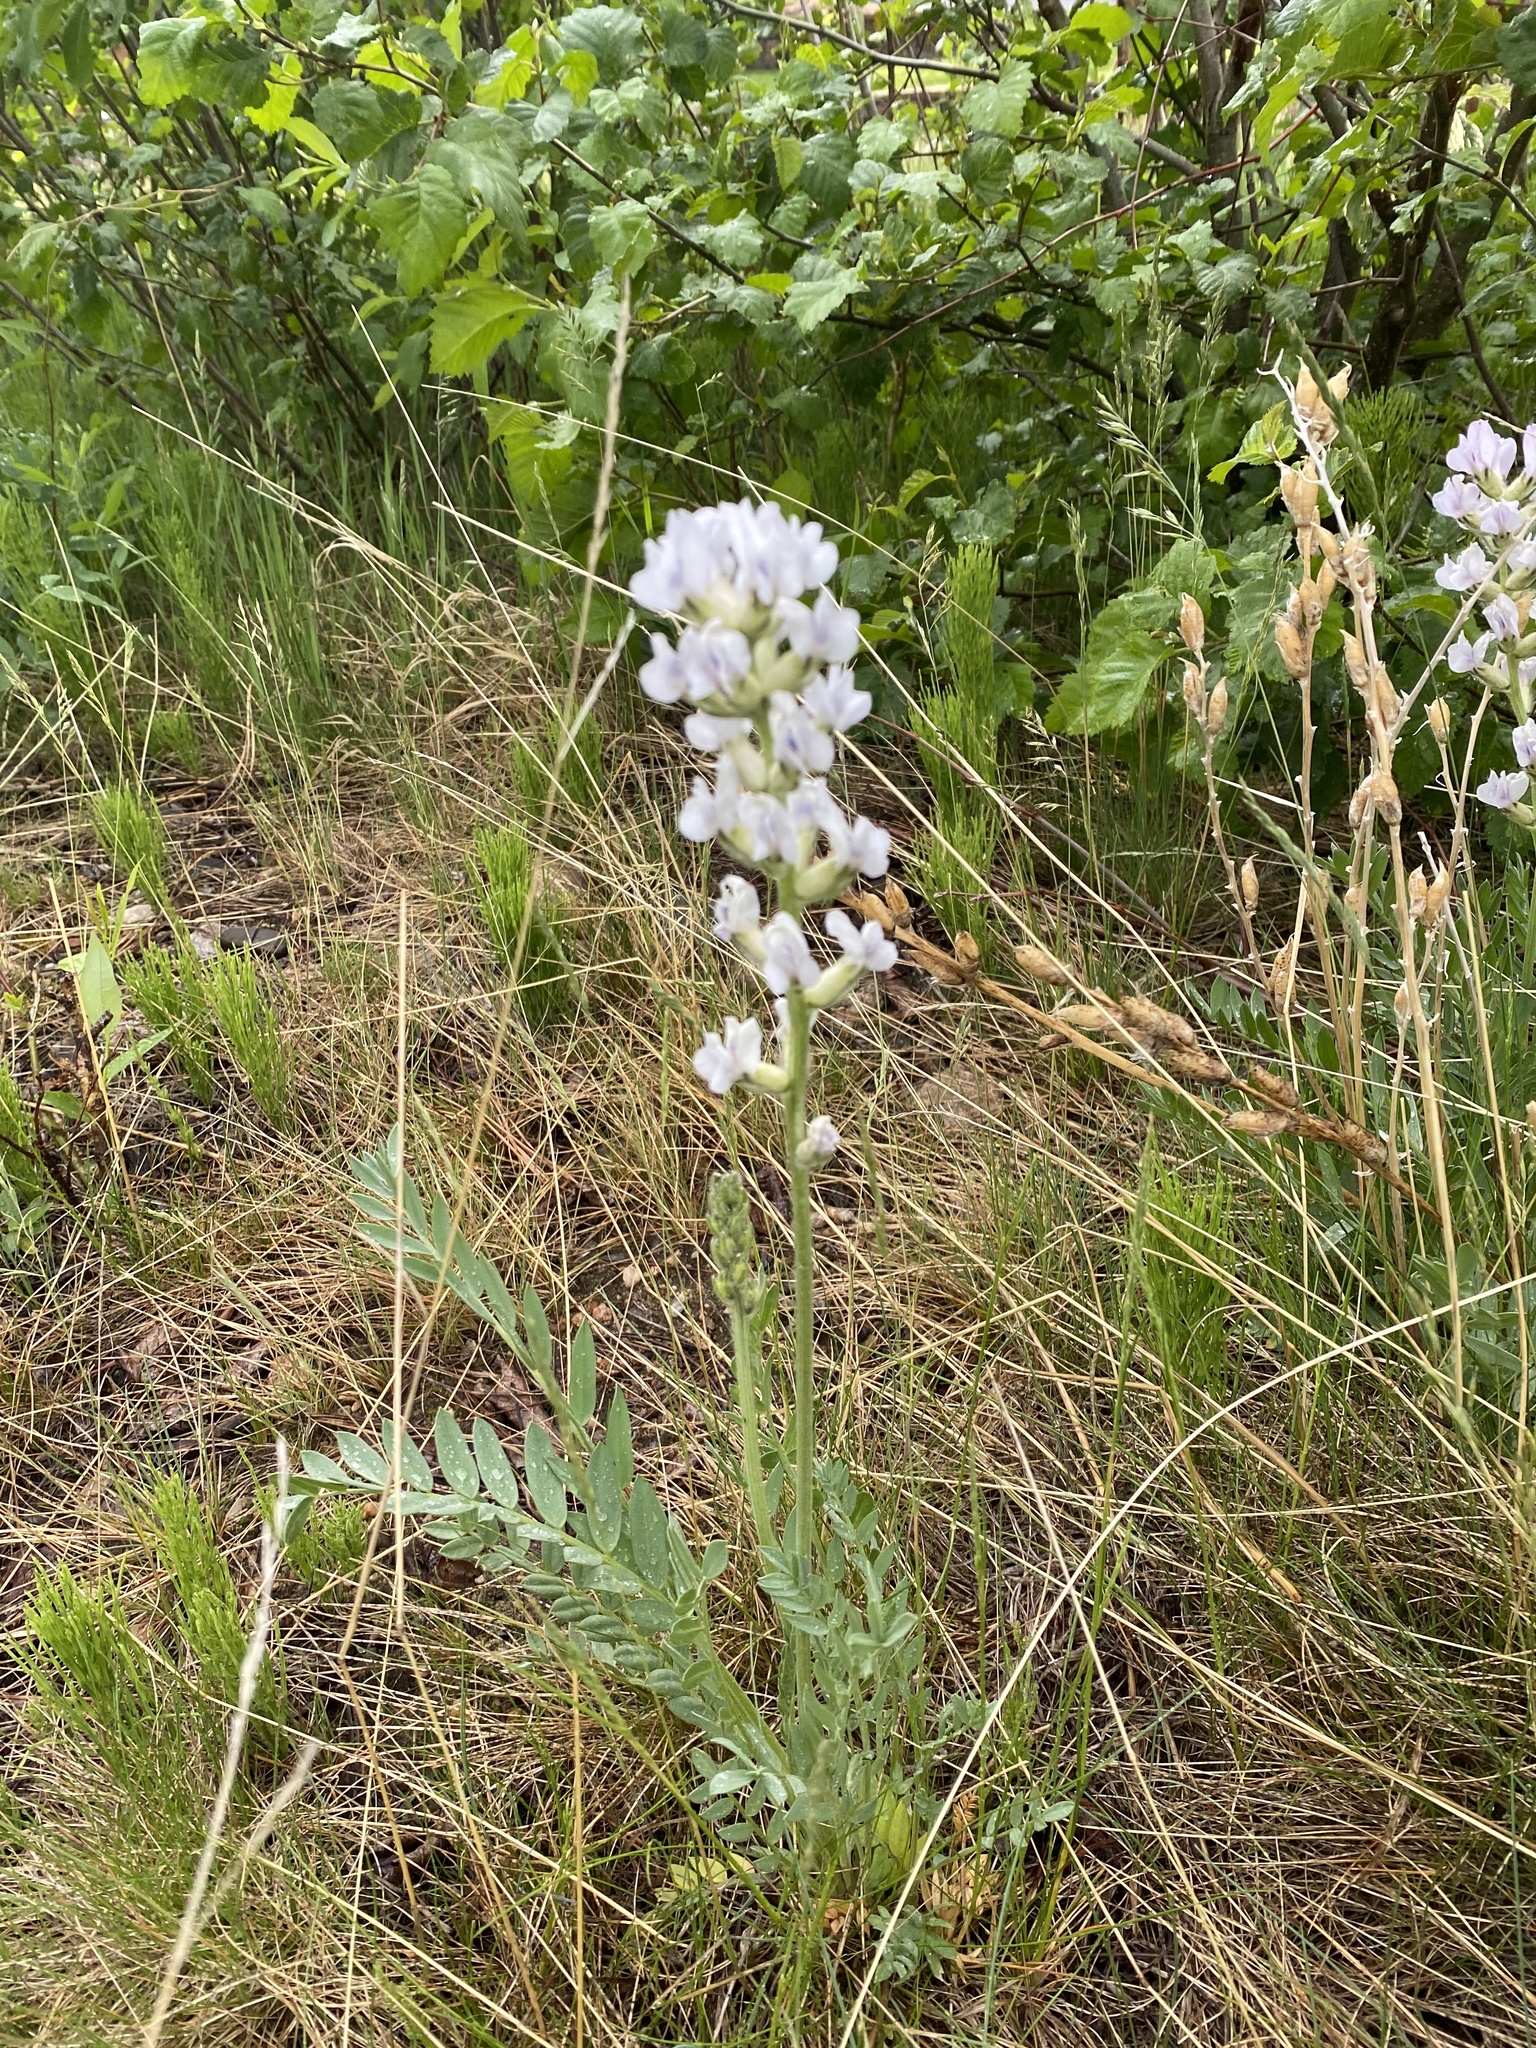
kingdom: Plantae
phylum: Tracheophyta
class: Magnoliopsida
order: Fabales
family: Fabaceae
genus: Oxytropis
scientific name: Oxytropis sericea
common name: Silky locoweed
